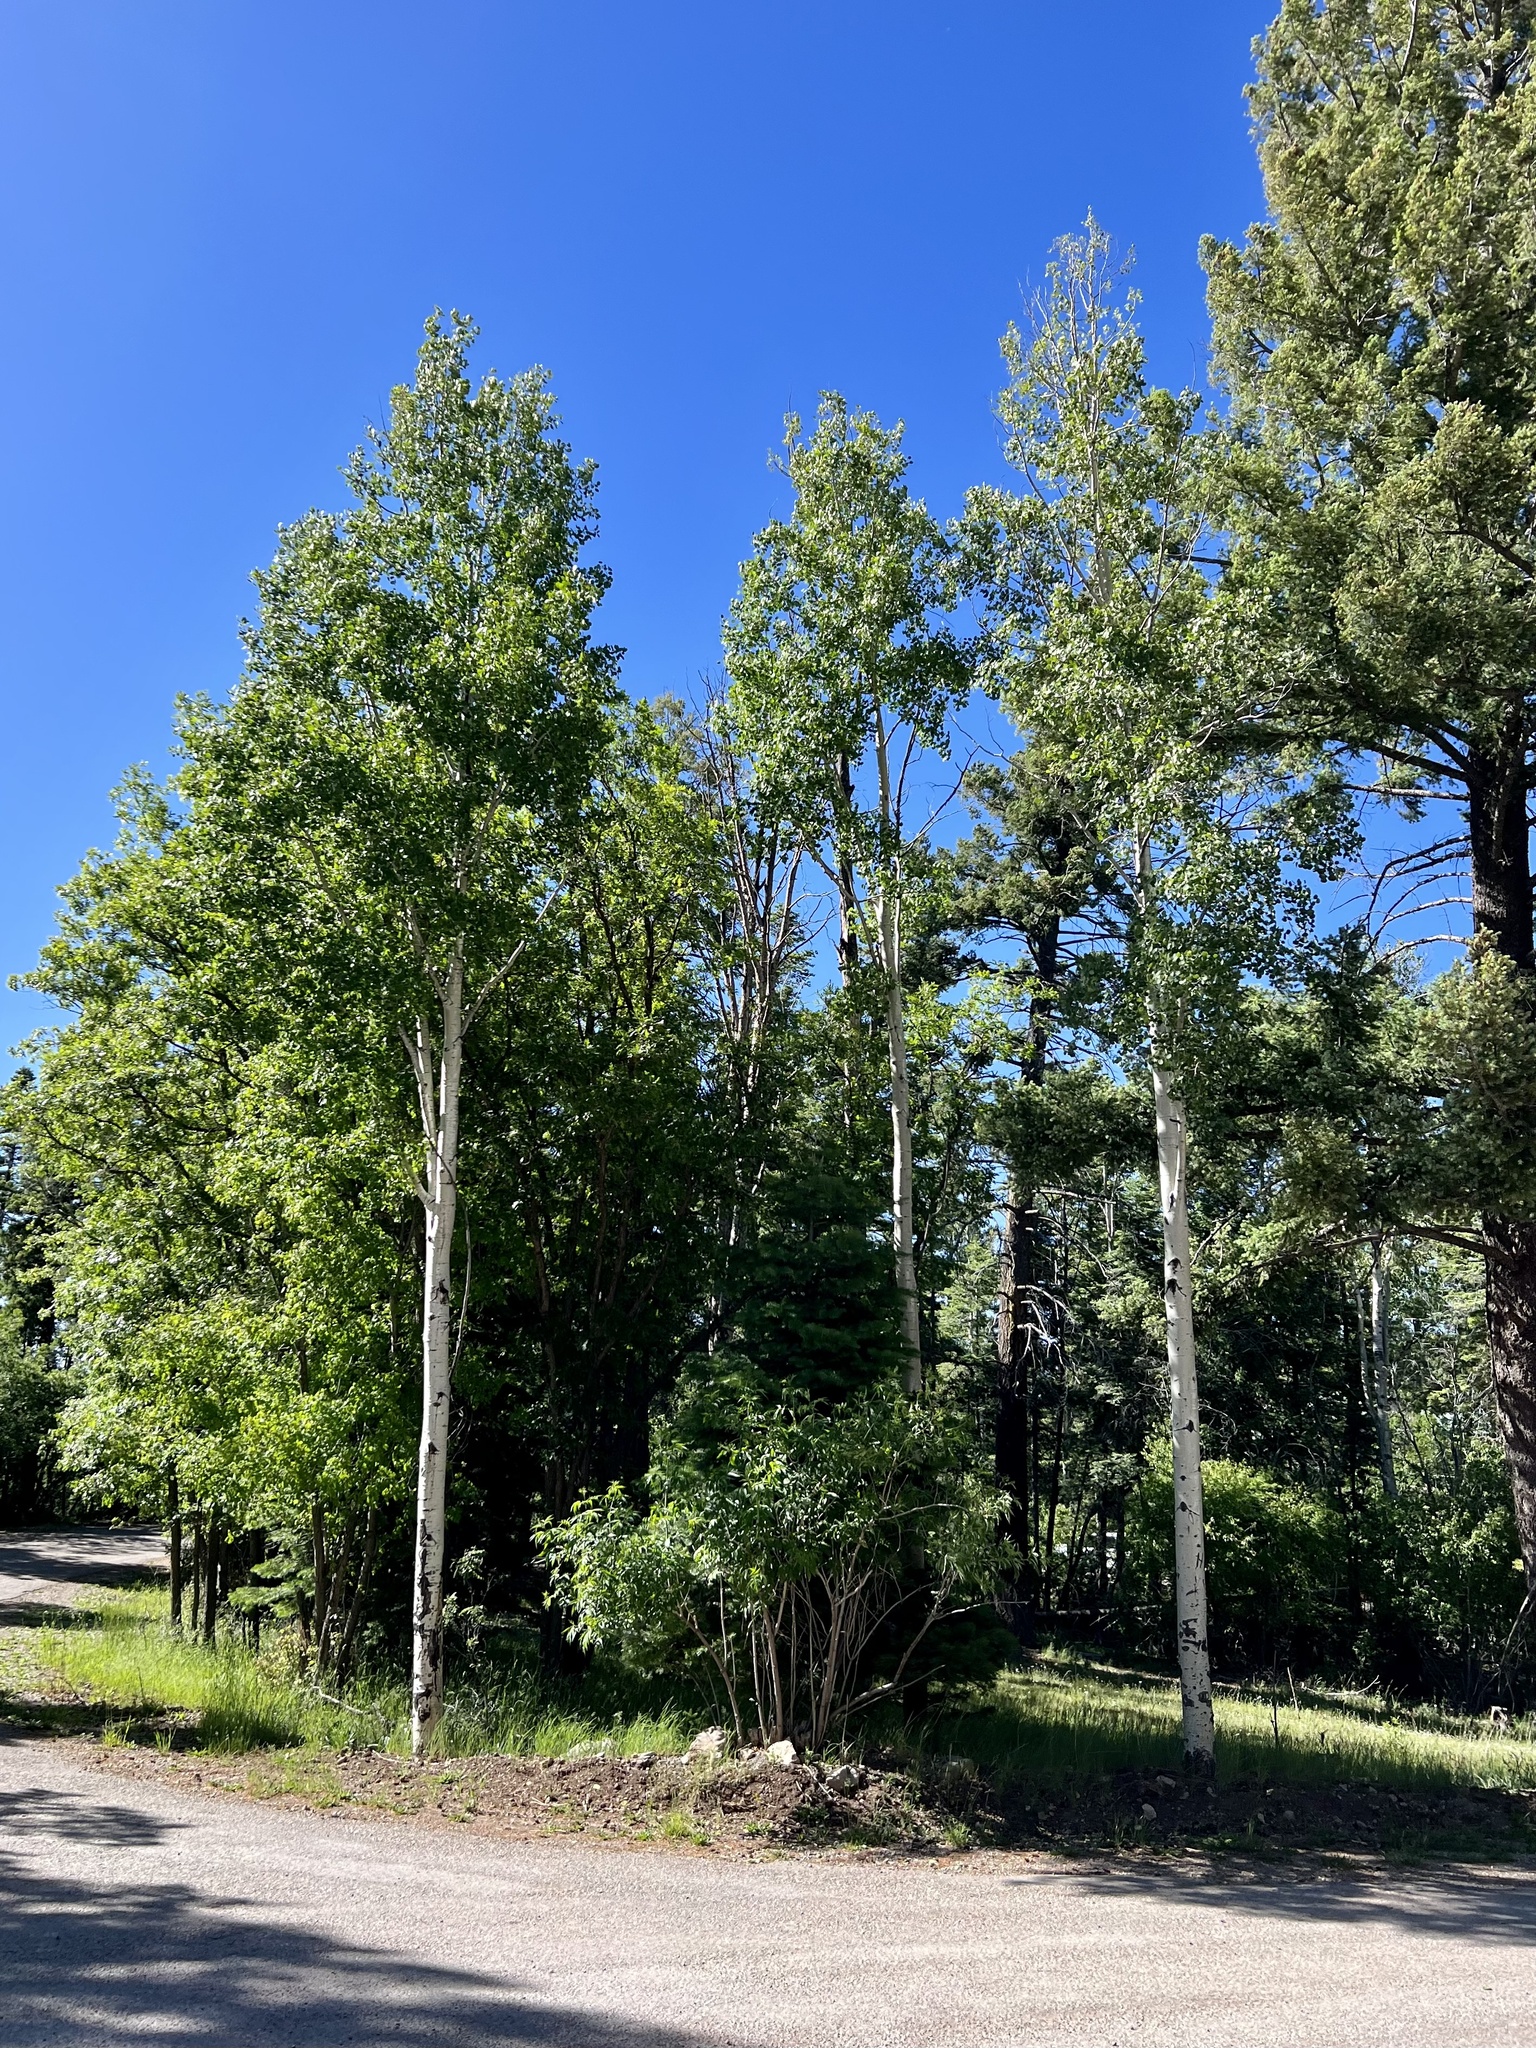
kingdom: Plantae
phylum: Tracheophyta
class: Magnoliopsida
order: Malpighiales
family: Salicaceae
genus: Populus
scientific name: Populus tremuloides
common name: Quaking aspen
